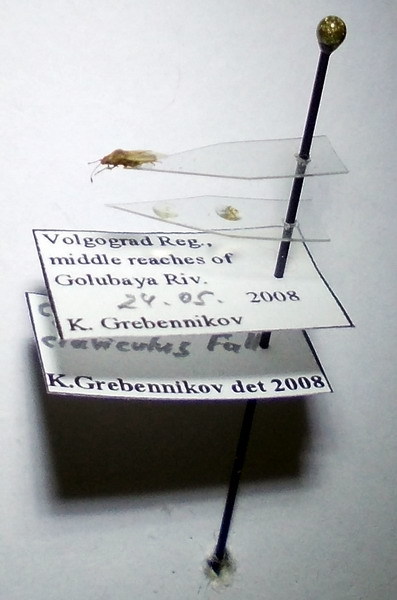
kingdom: Animalia
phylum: Arthropoda
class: Insecta
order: Hemiptera
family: Cymidae
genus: Cymus
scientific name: Cymus claviculus
